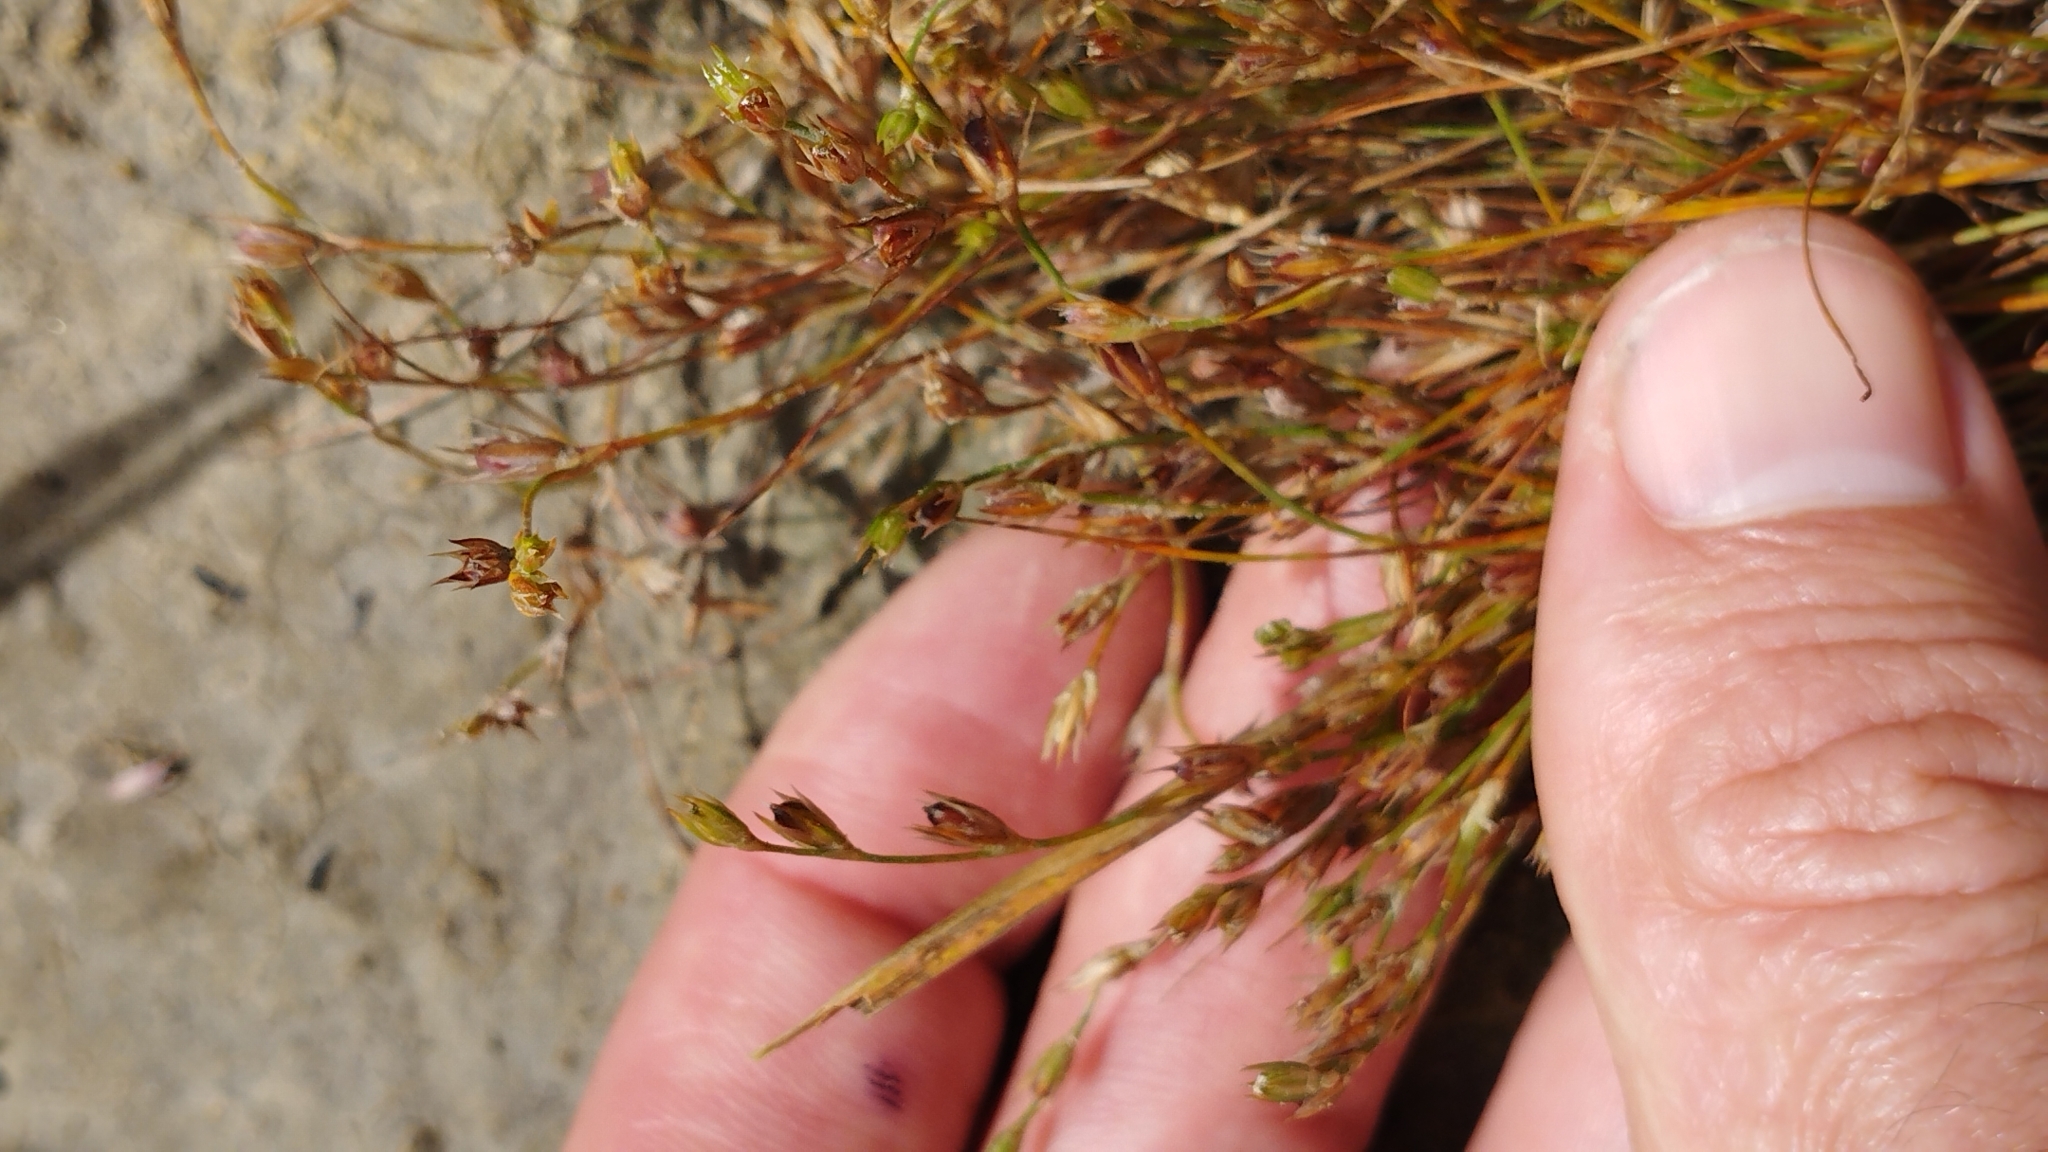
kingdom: Plantae
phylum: Tracheophyta
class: Liliopsida
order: Poales
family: Juncaceae
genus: Juncus
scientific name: Juncus bufonius
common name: Toad rush
